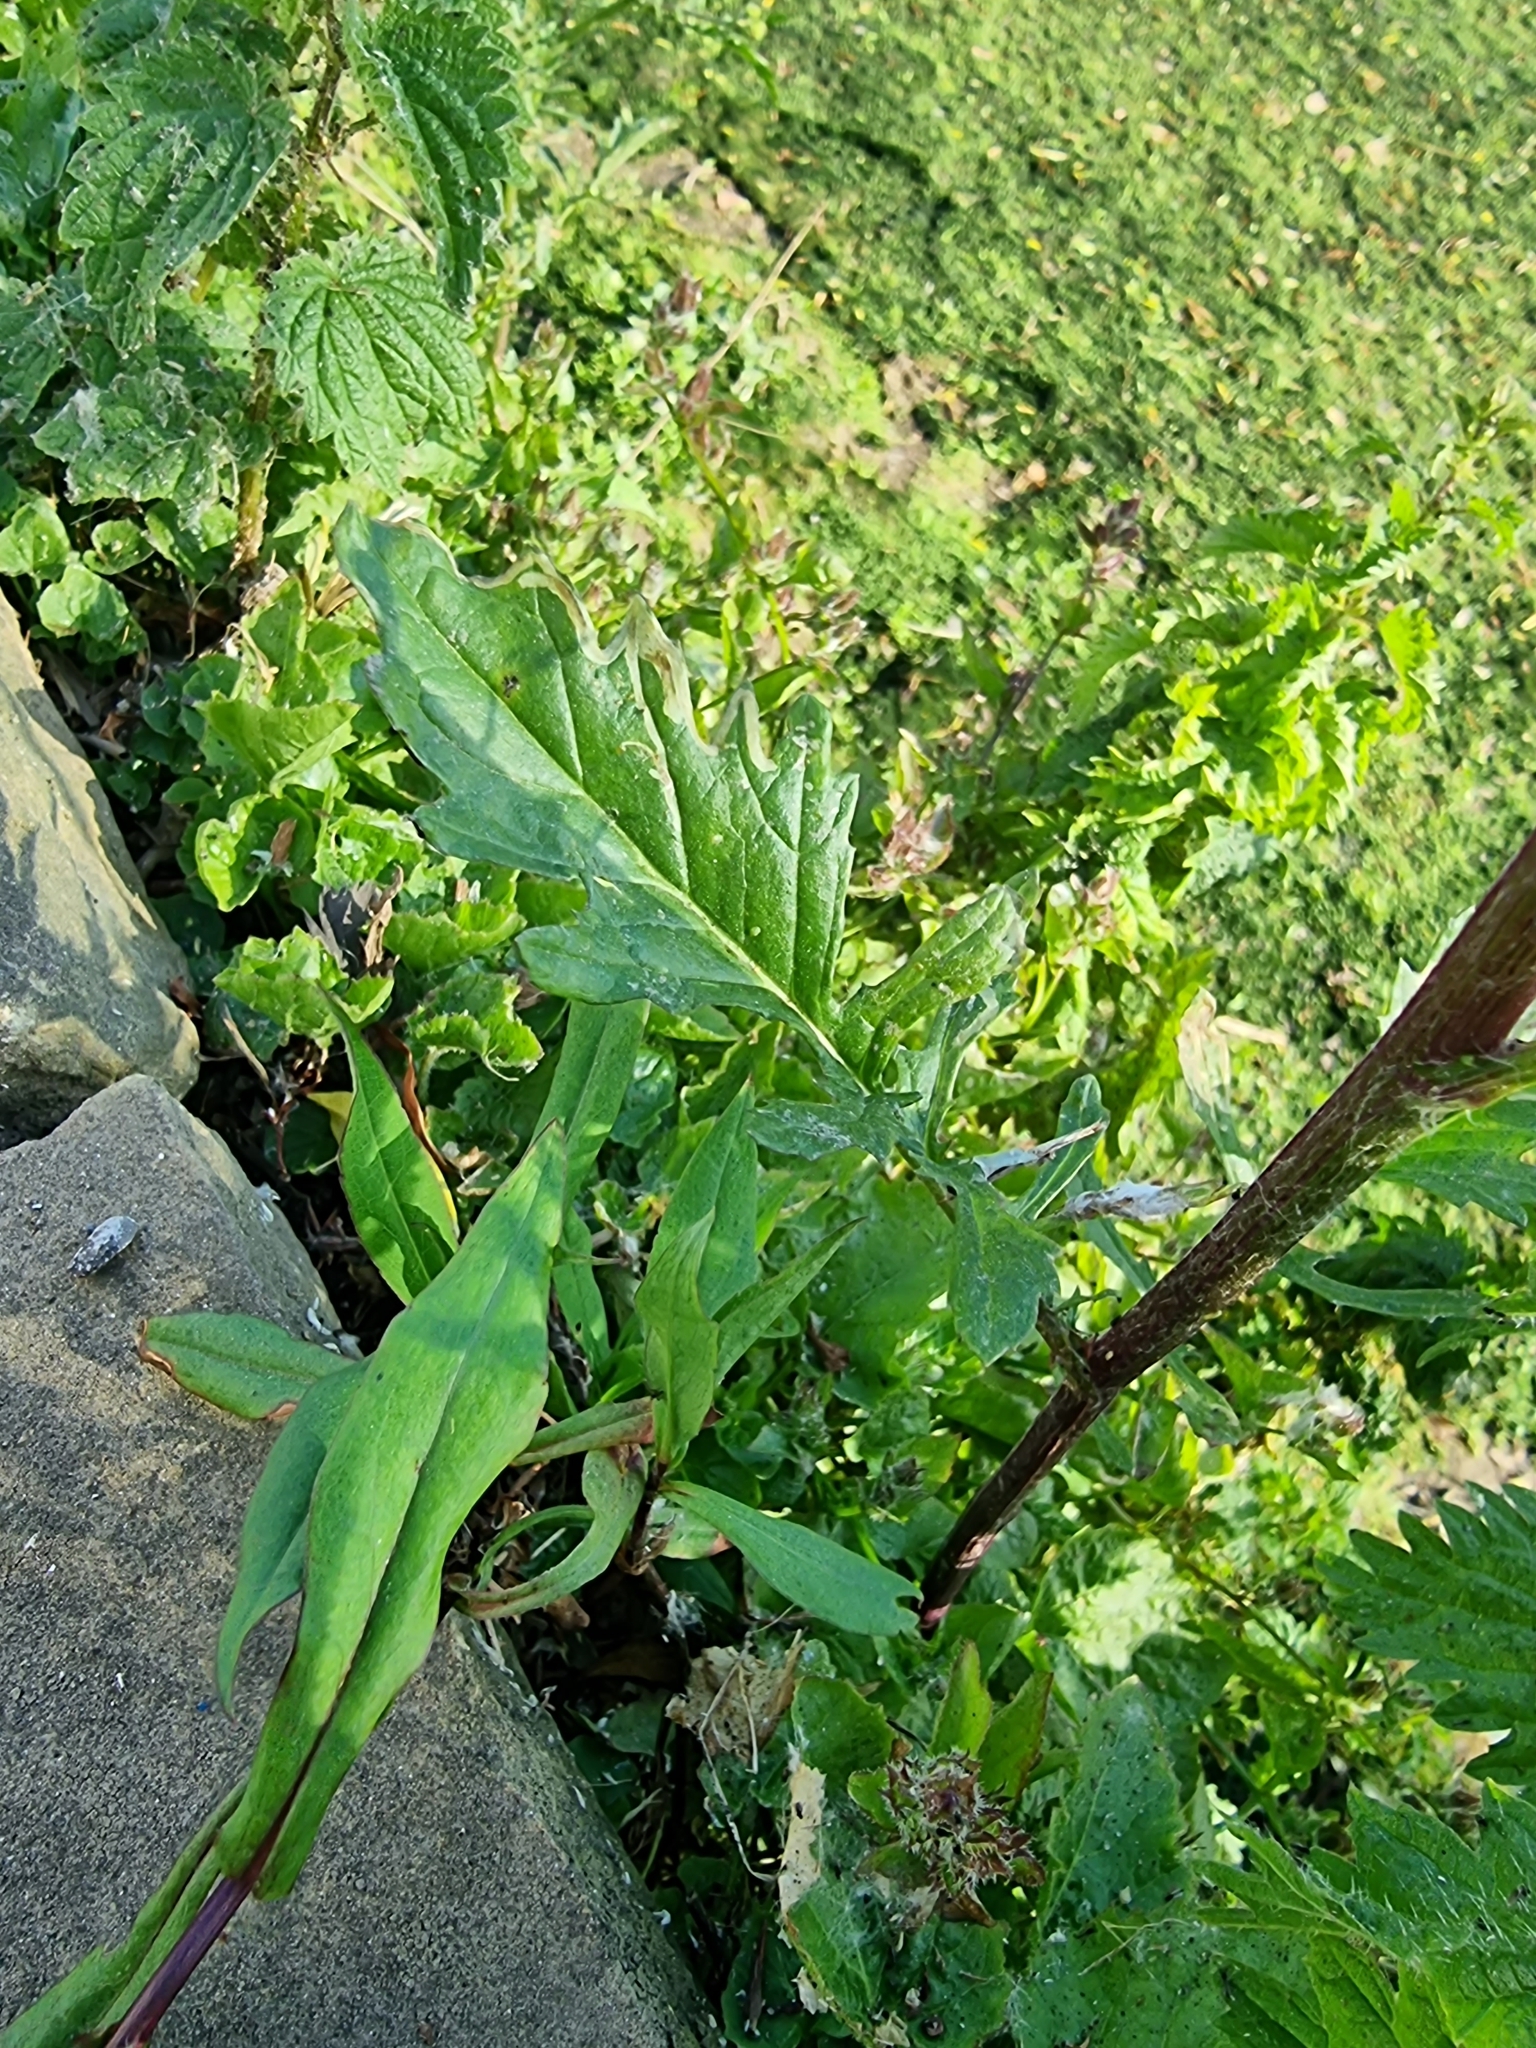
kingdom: Plantae
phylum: Tracheophyta
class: Magnoliopsida
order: Asterales
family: Asteraceae
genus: Jacobaea
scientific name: Jacobaea aquatica
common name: Water ragwort
